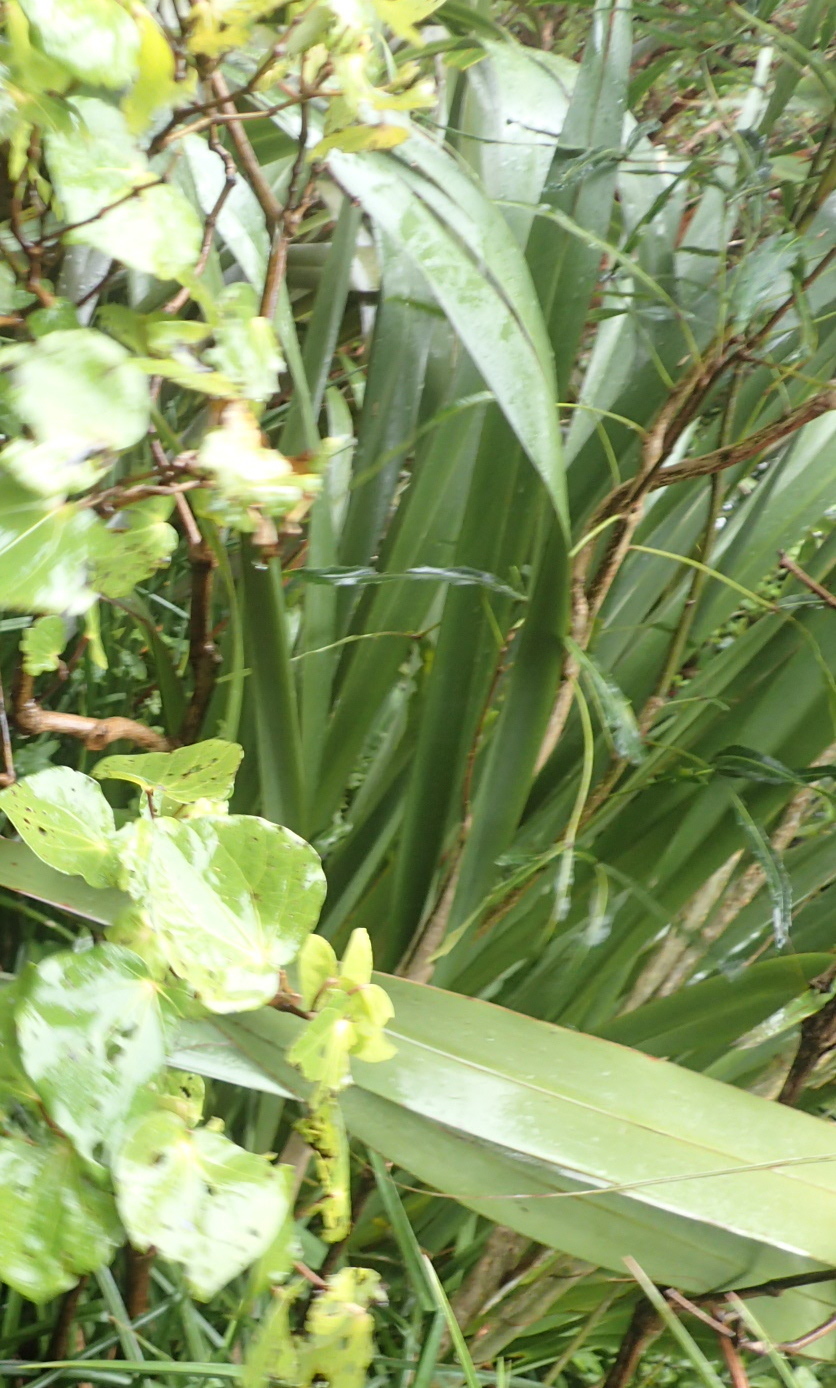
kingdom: Plantae
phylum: Tracheophyta
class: Liliopsida
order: Asparagales
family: Asphodelaceae
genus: Phormium
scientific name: Phormium tenax
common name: New zealand flax
